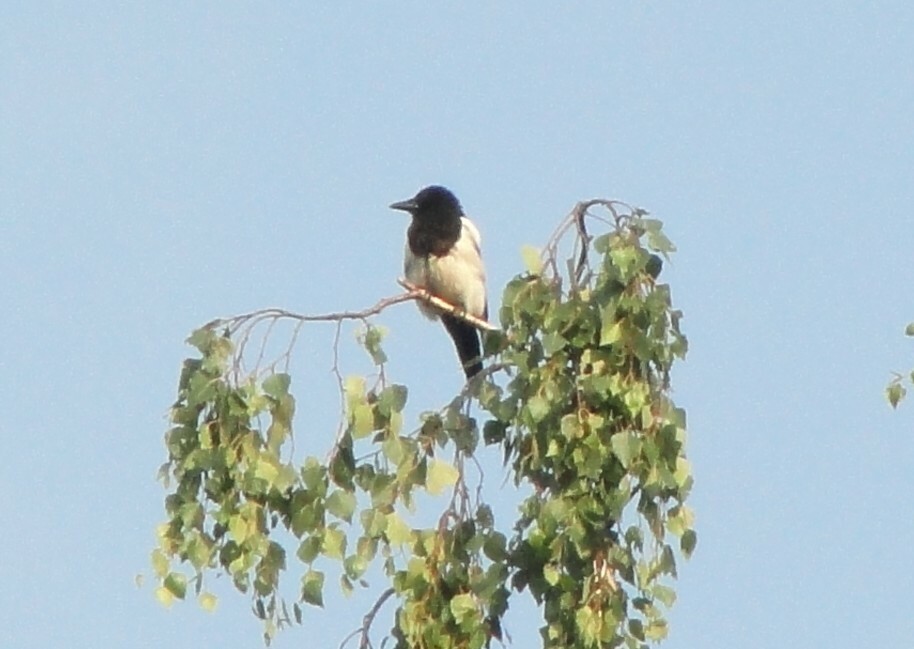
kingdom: Animalia
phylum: Chordata
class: Aves
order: Passeriformes
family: Corvidae
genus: Pica
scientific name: Pica pica
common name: Eurasian magpie
